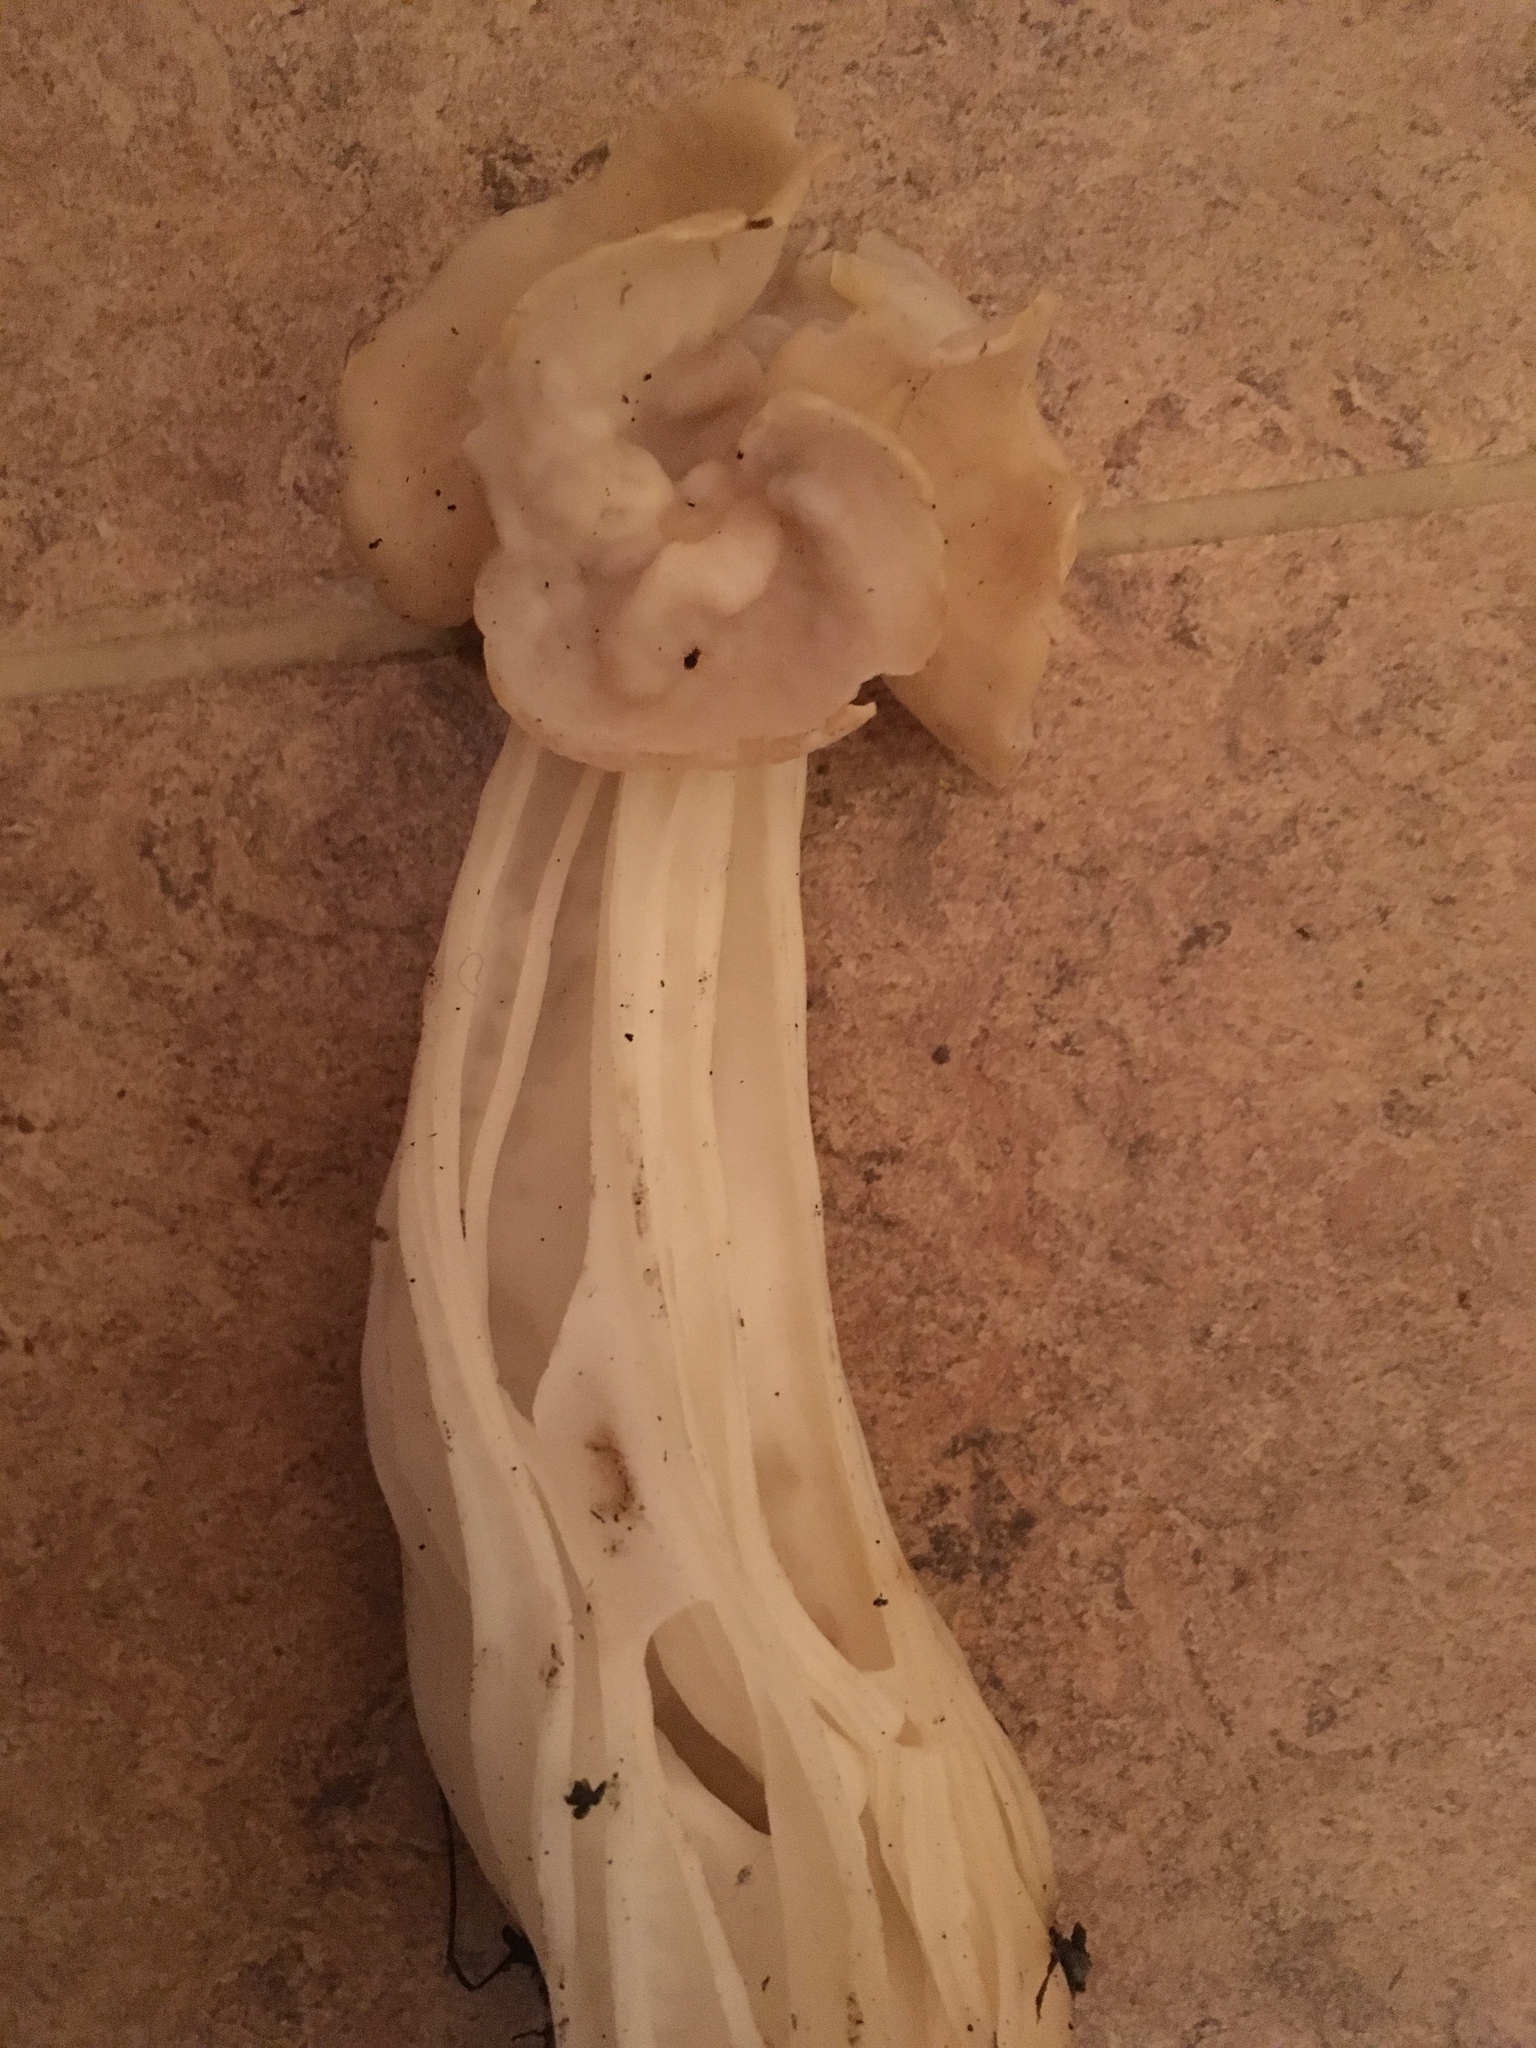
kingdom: Fungi
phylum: Ascomycota
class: Pezizomycetes
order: Pezizales
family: Helvellaceae
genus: Helvella
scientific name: Helvella crispa
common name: White saddle
